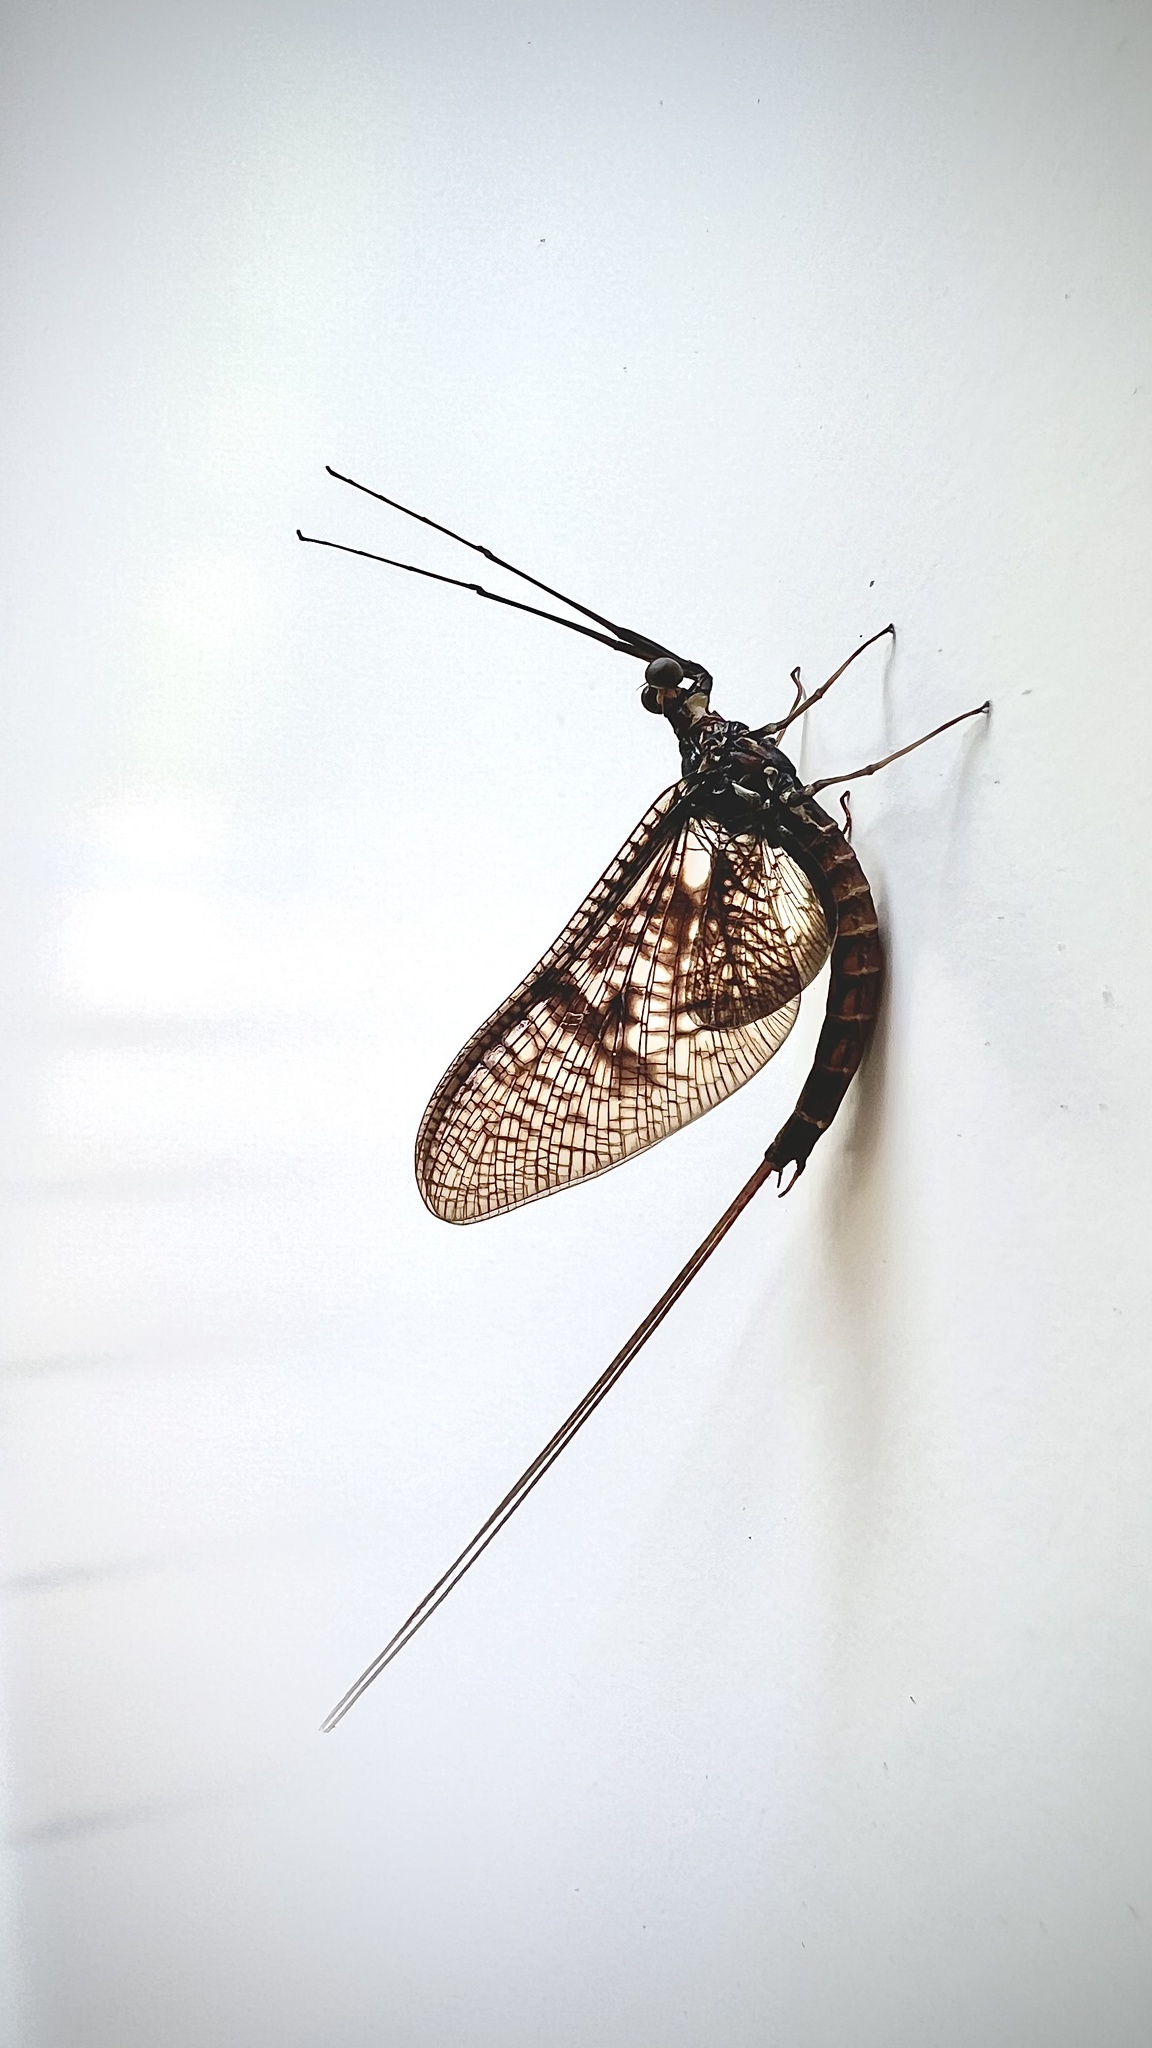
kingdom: Animalia
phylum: Arthropoda
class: Insecta
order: Ephemeroptera
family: Ephemeridae
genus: Ephemera
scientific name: Ephemera vulgata
